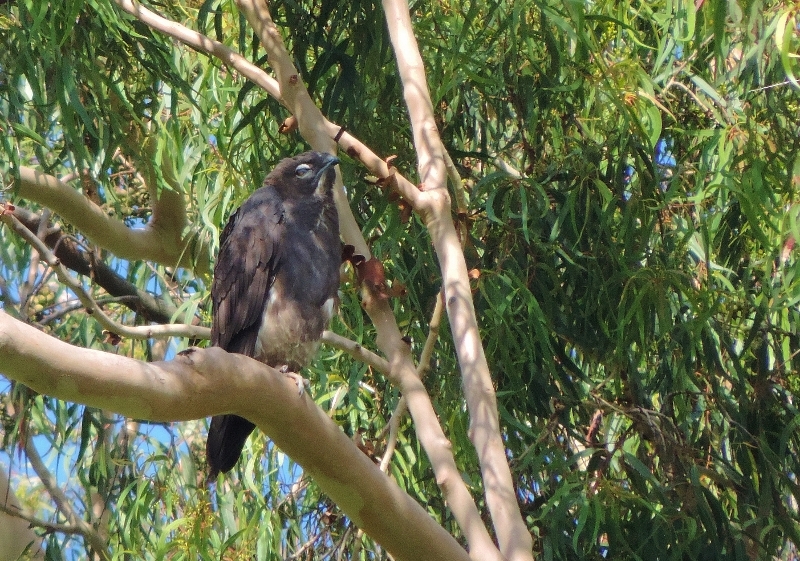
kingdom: Animalia
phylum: Chordata
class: Aves
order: Accipitriformes
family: Accipitridae
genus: Macheiramphus
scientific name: Macheiramphus alcinus
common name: Bat hawk
